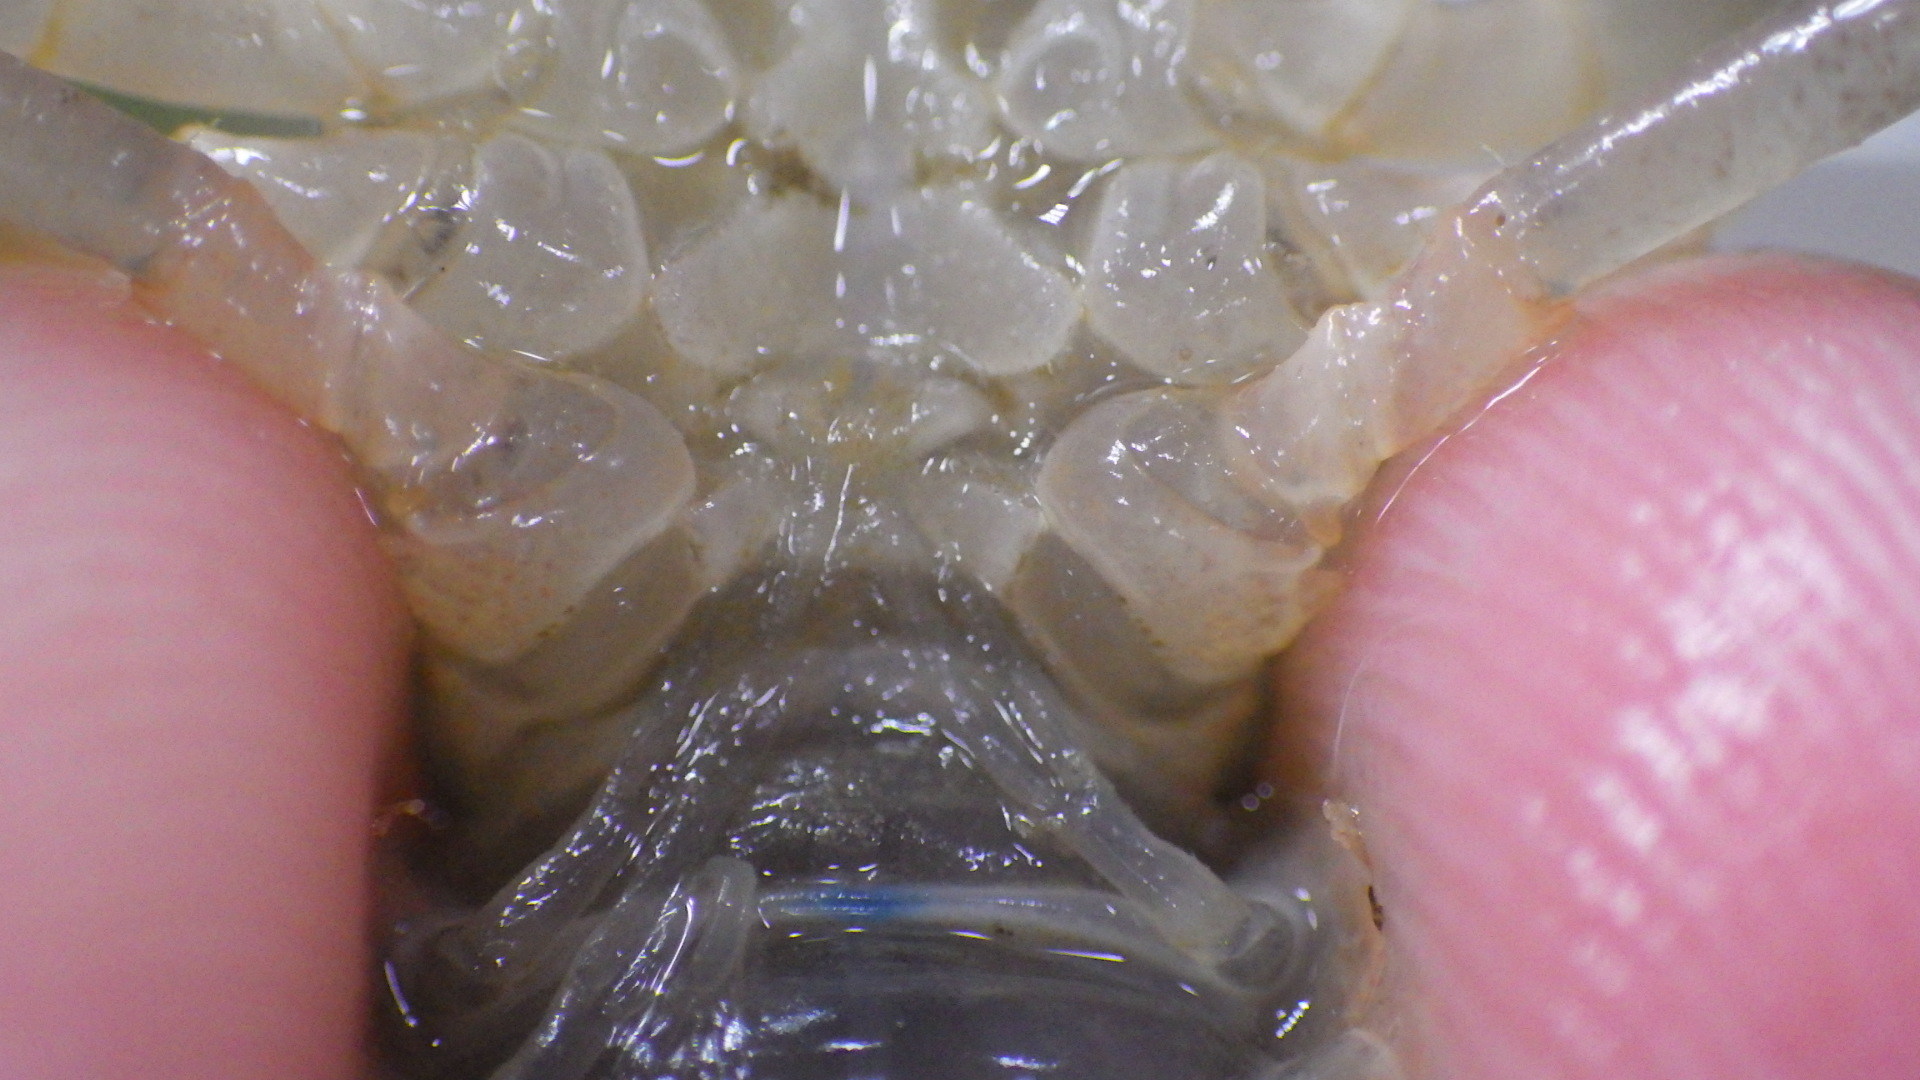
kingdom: Animalia
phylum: Arthropoda
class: Malacostraca
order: Decapoda
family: Cambaridae
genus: Cambarus
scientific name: Cambarus bartonii
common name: Appalachian brook crayfish
